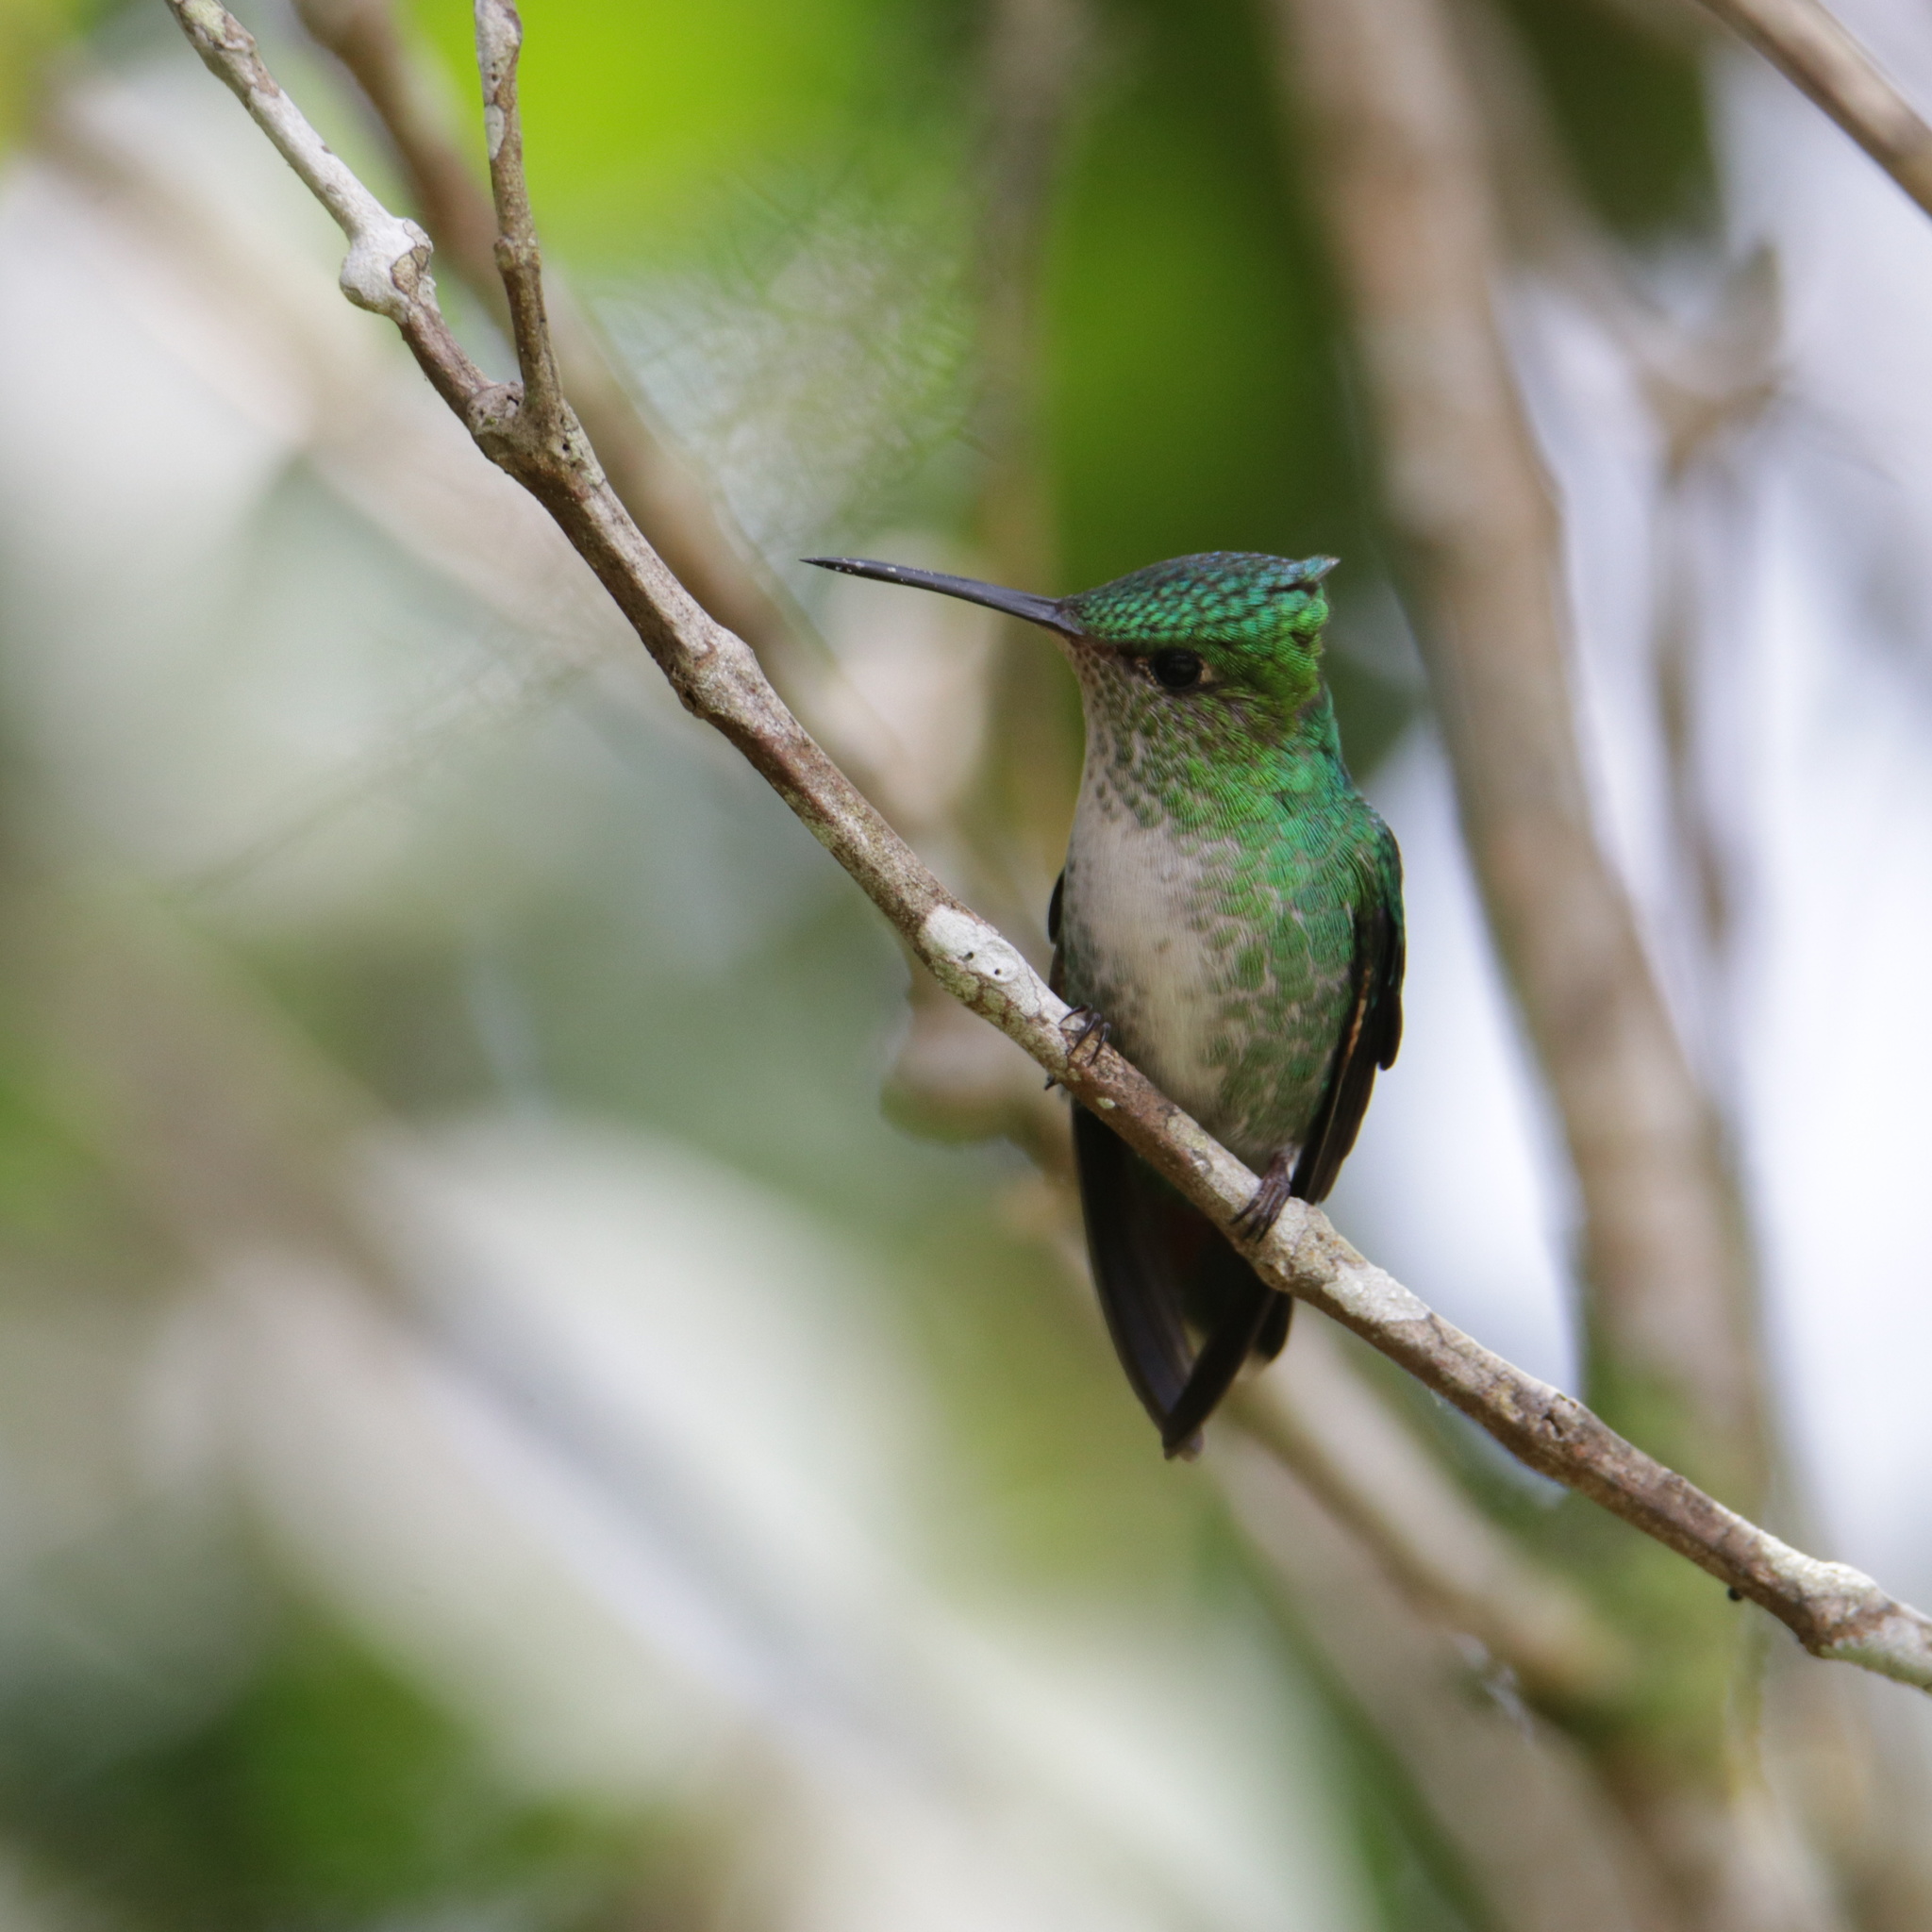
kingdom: Animalia
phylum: Chordata
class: Aves
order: Apodiformes
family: Trochilidae
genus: Goldmania
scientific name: Goldmania violiceps
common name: Violet-capped hummingbird
